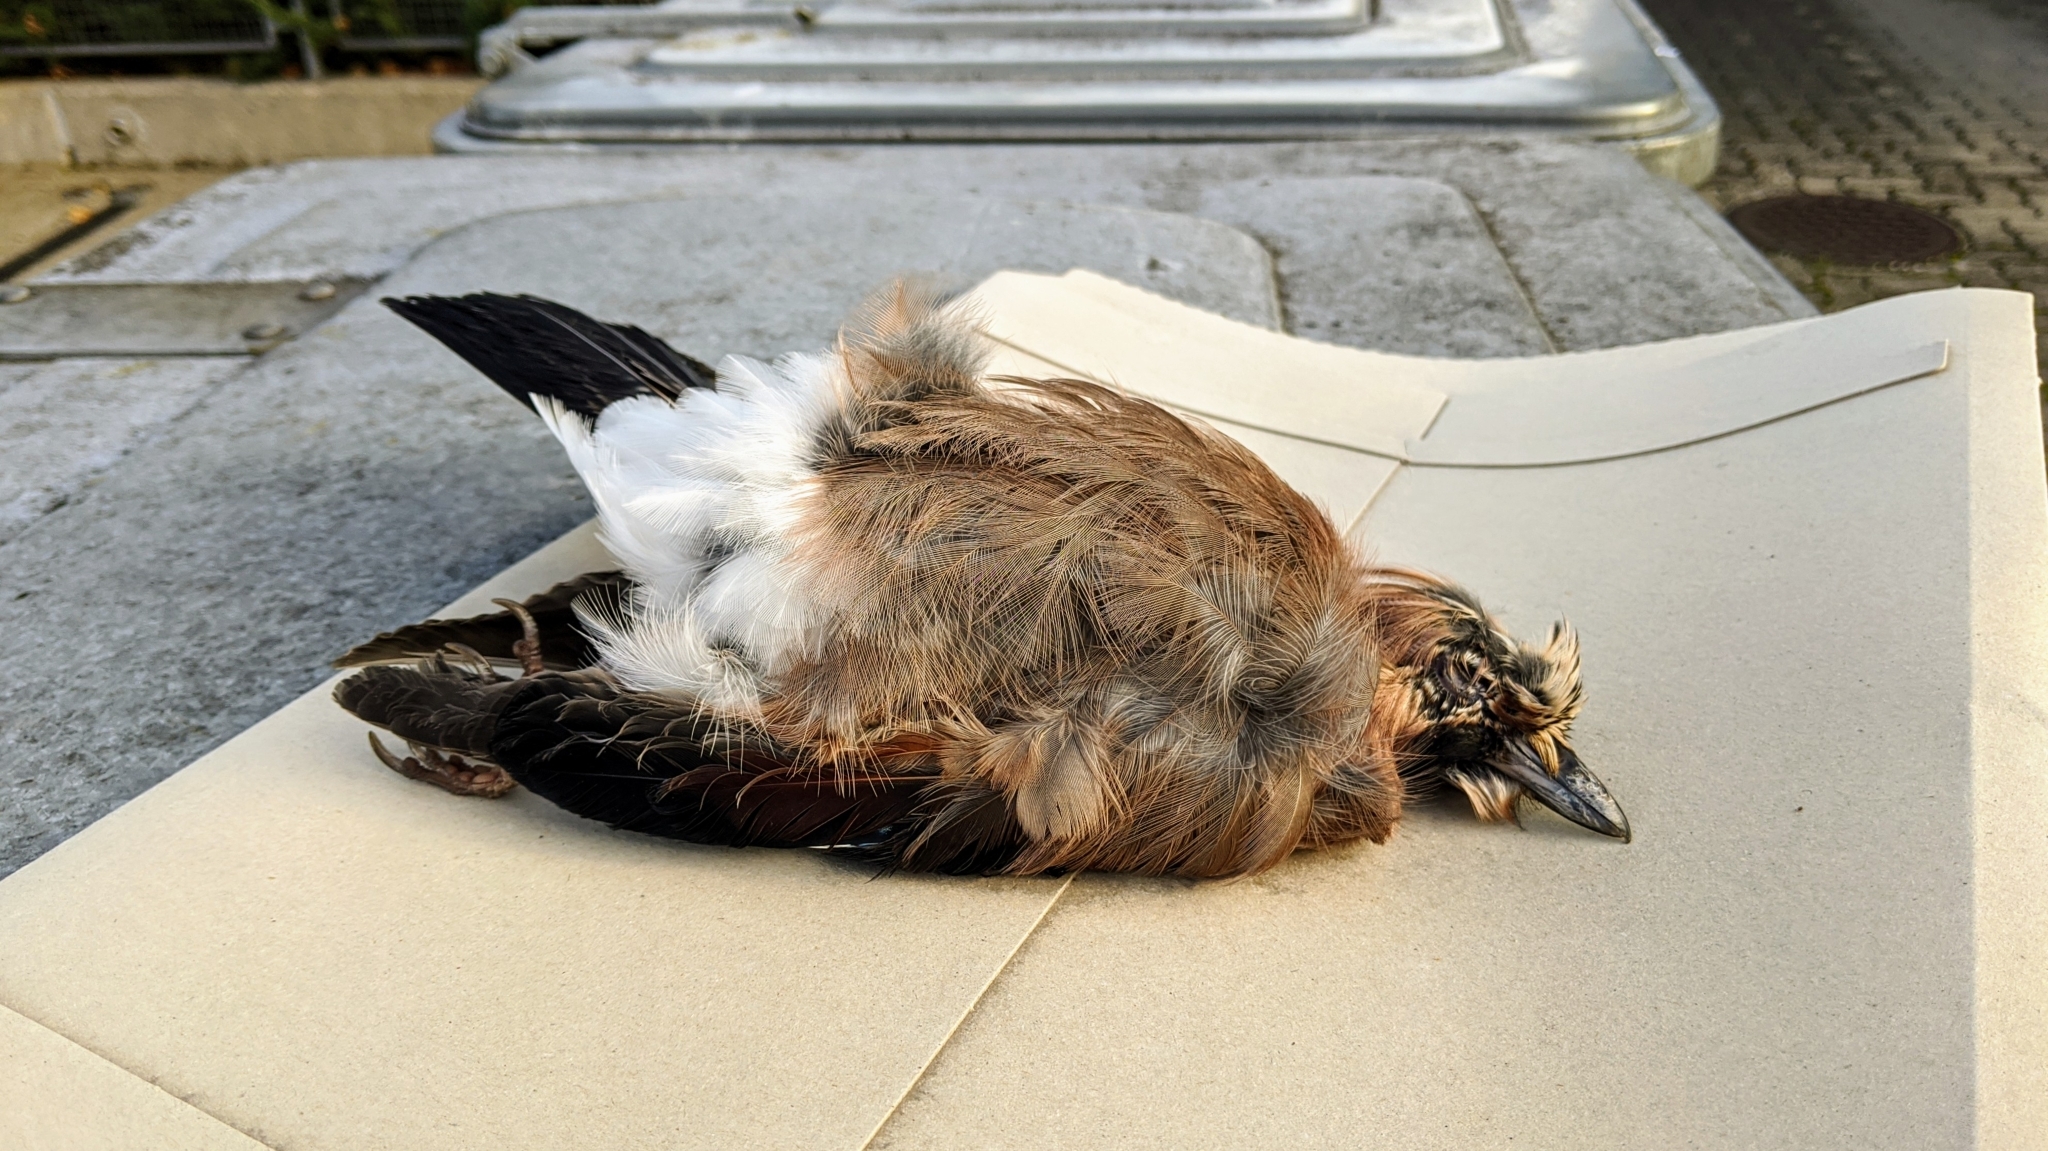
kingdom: Animalia
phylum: Chordata
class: Aves
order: Passeriformes
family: Corvidae
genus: Garrulus
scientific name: Garrulus glandarius
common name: Eurasian jay
